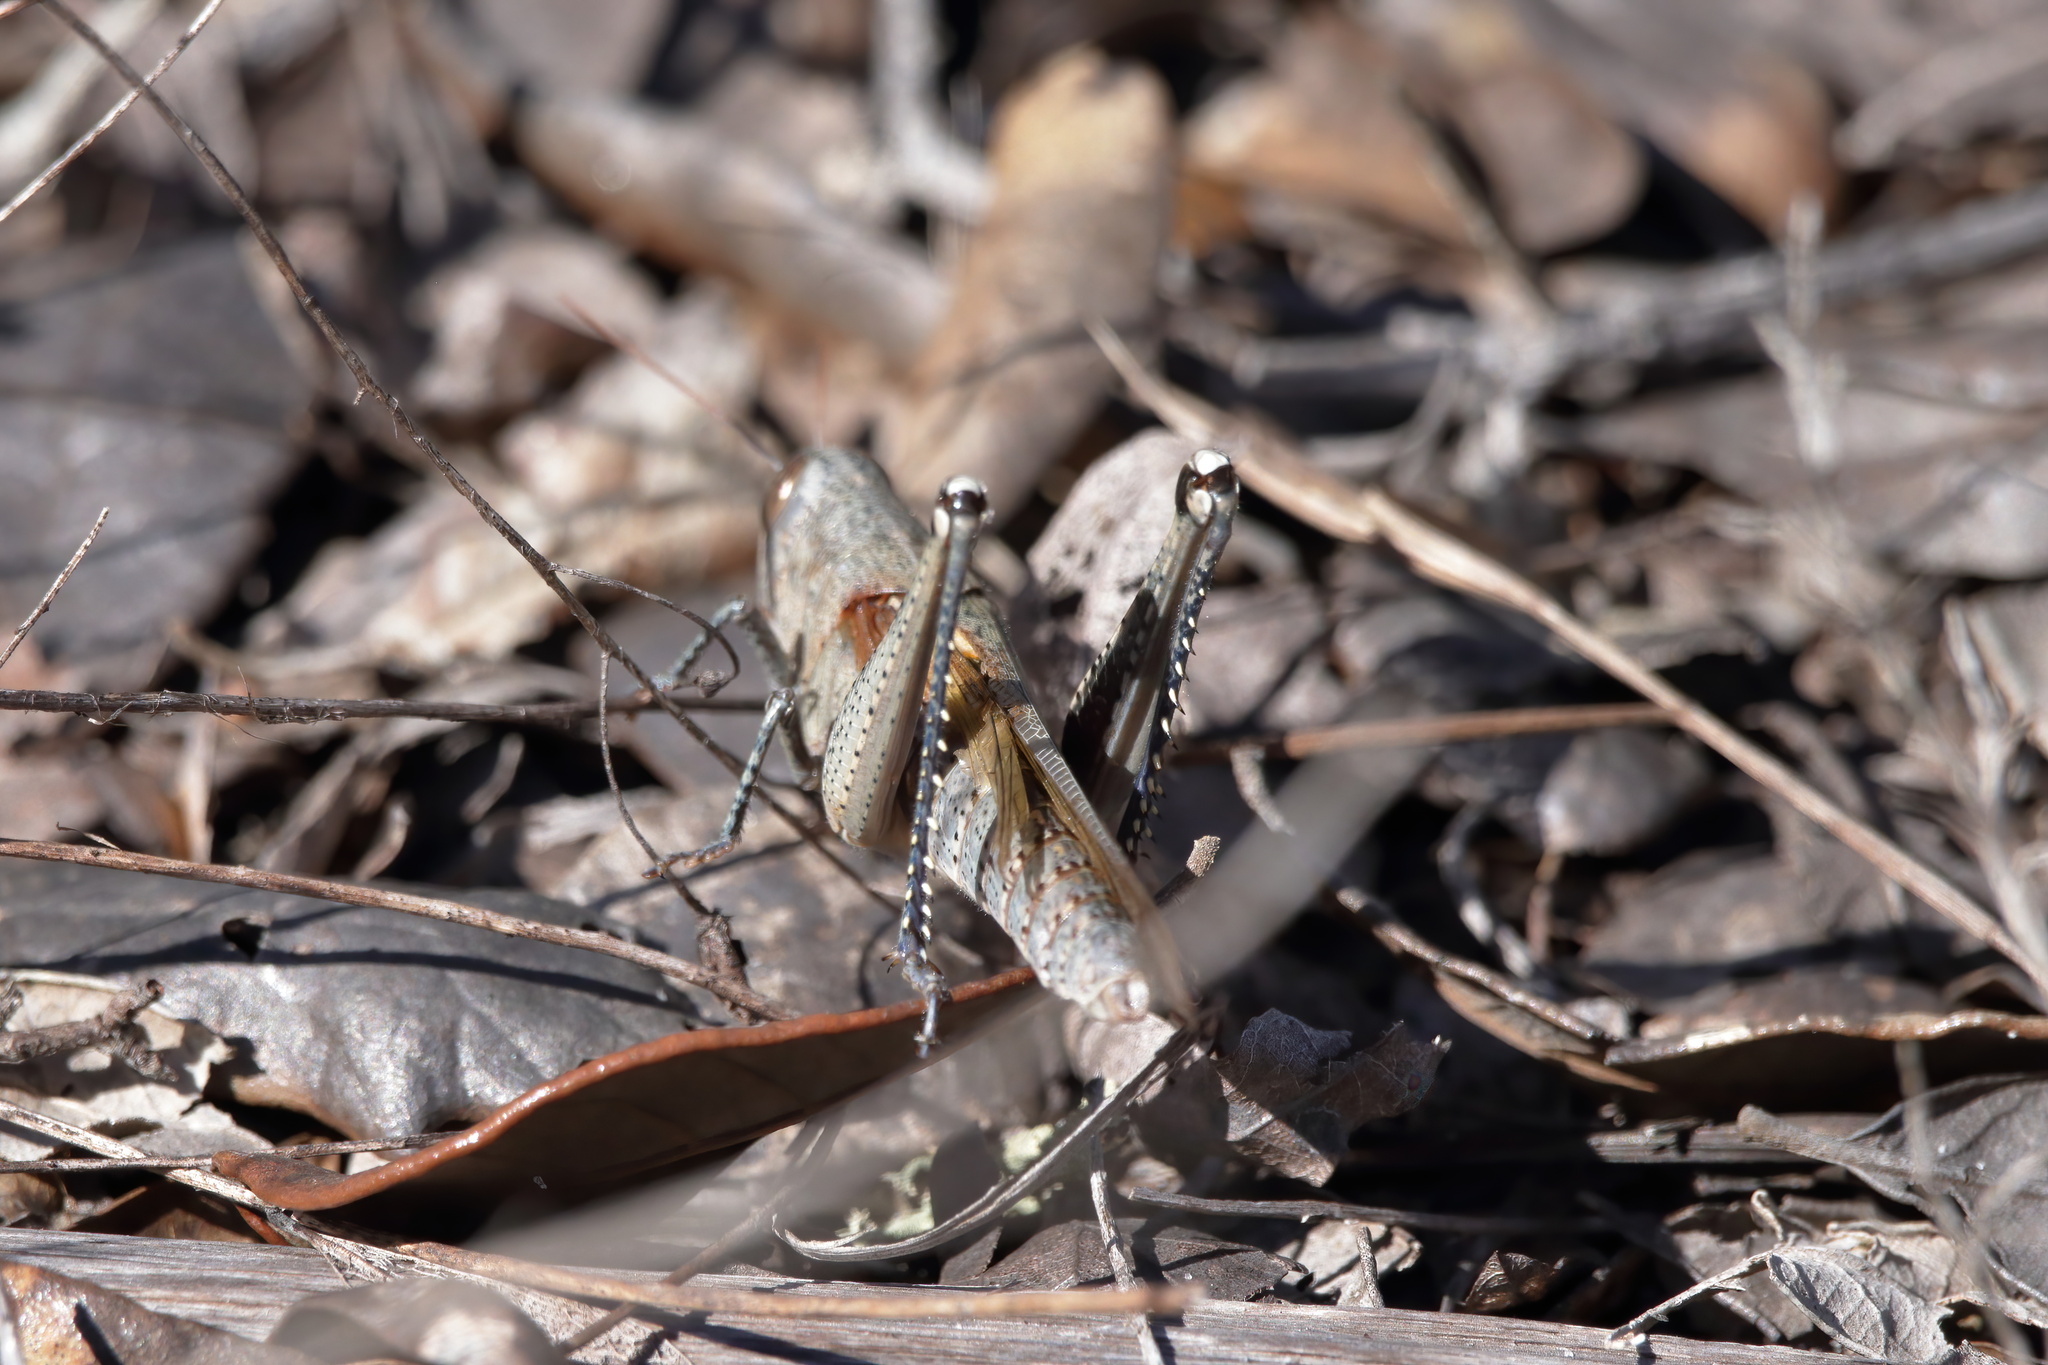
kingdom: Animalia
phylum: Arthropoda
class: Insecta
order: Orthoptera
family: Acrididae
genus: Schistocerca
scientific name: Schistocerca rubiginosa
